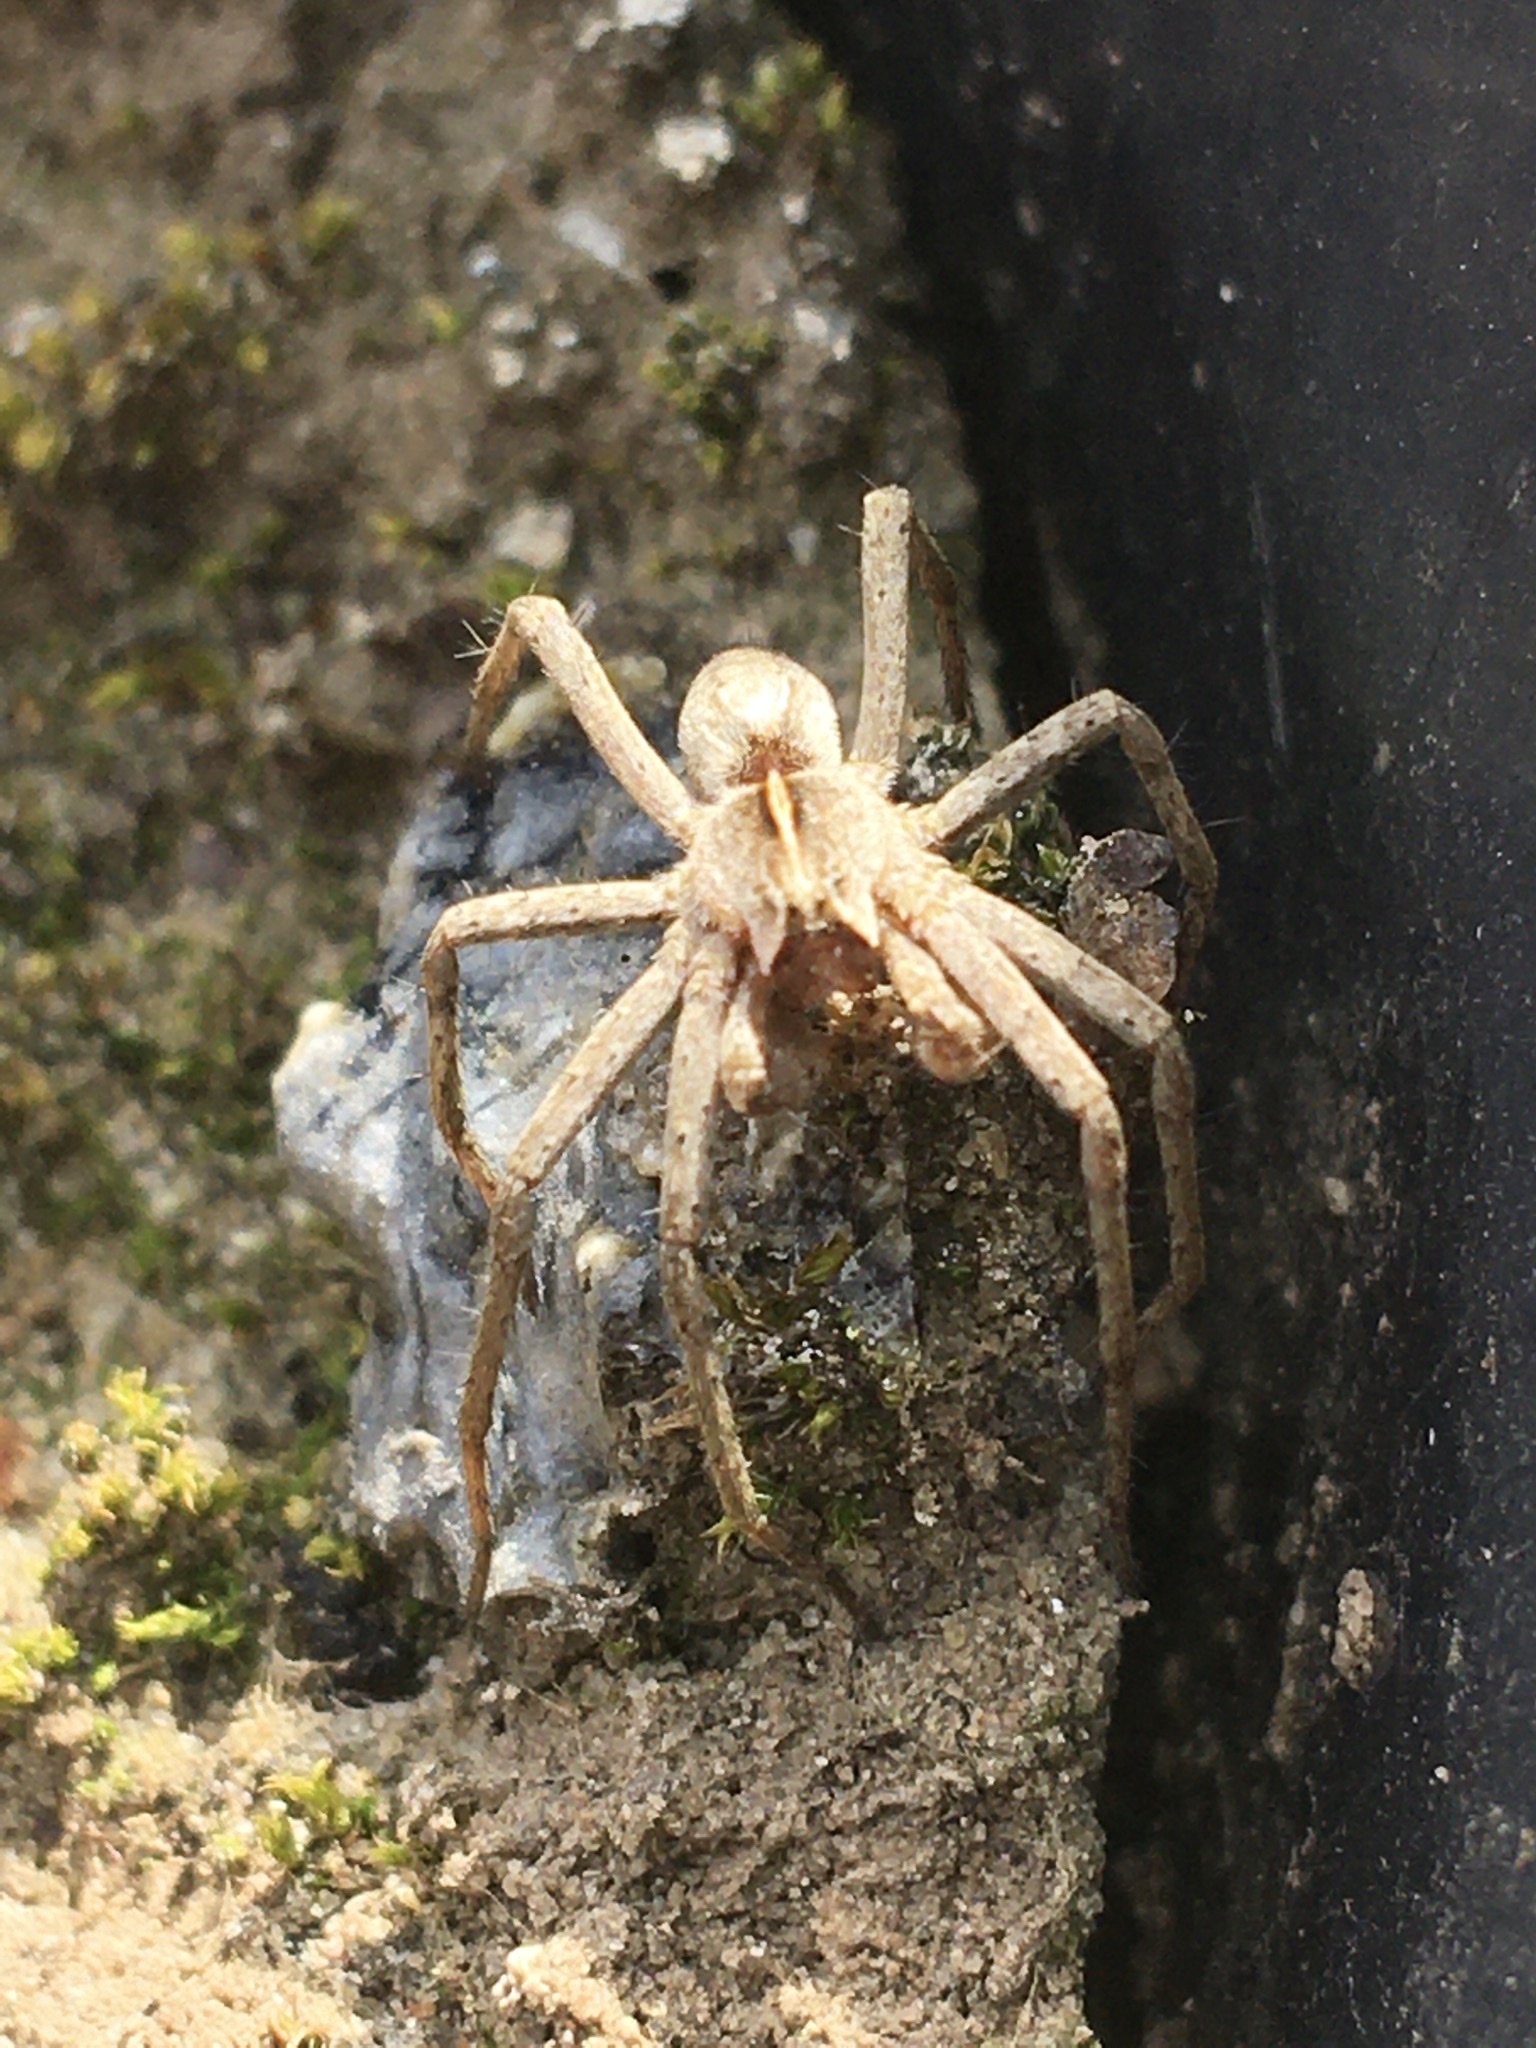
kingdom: Animalia
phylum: Arthropoda
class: Arachnida
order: Araneae
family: Pisauridae
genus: Pisaura
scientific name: Pisaura mirabilis
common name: Tent spider
